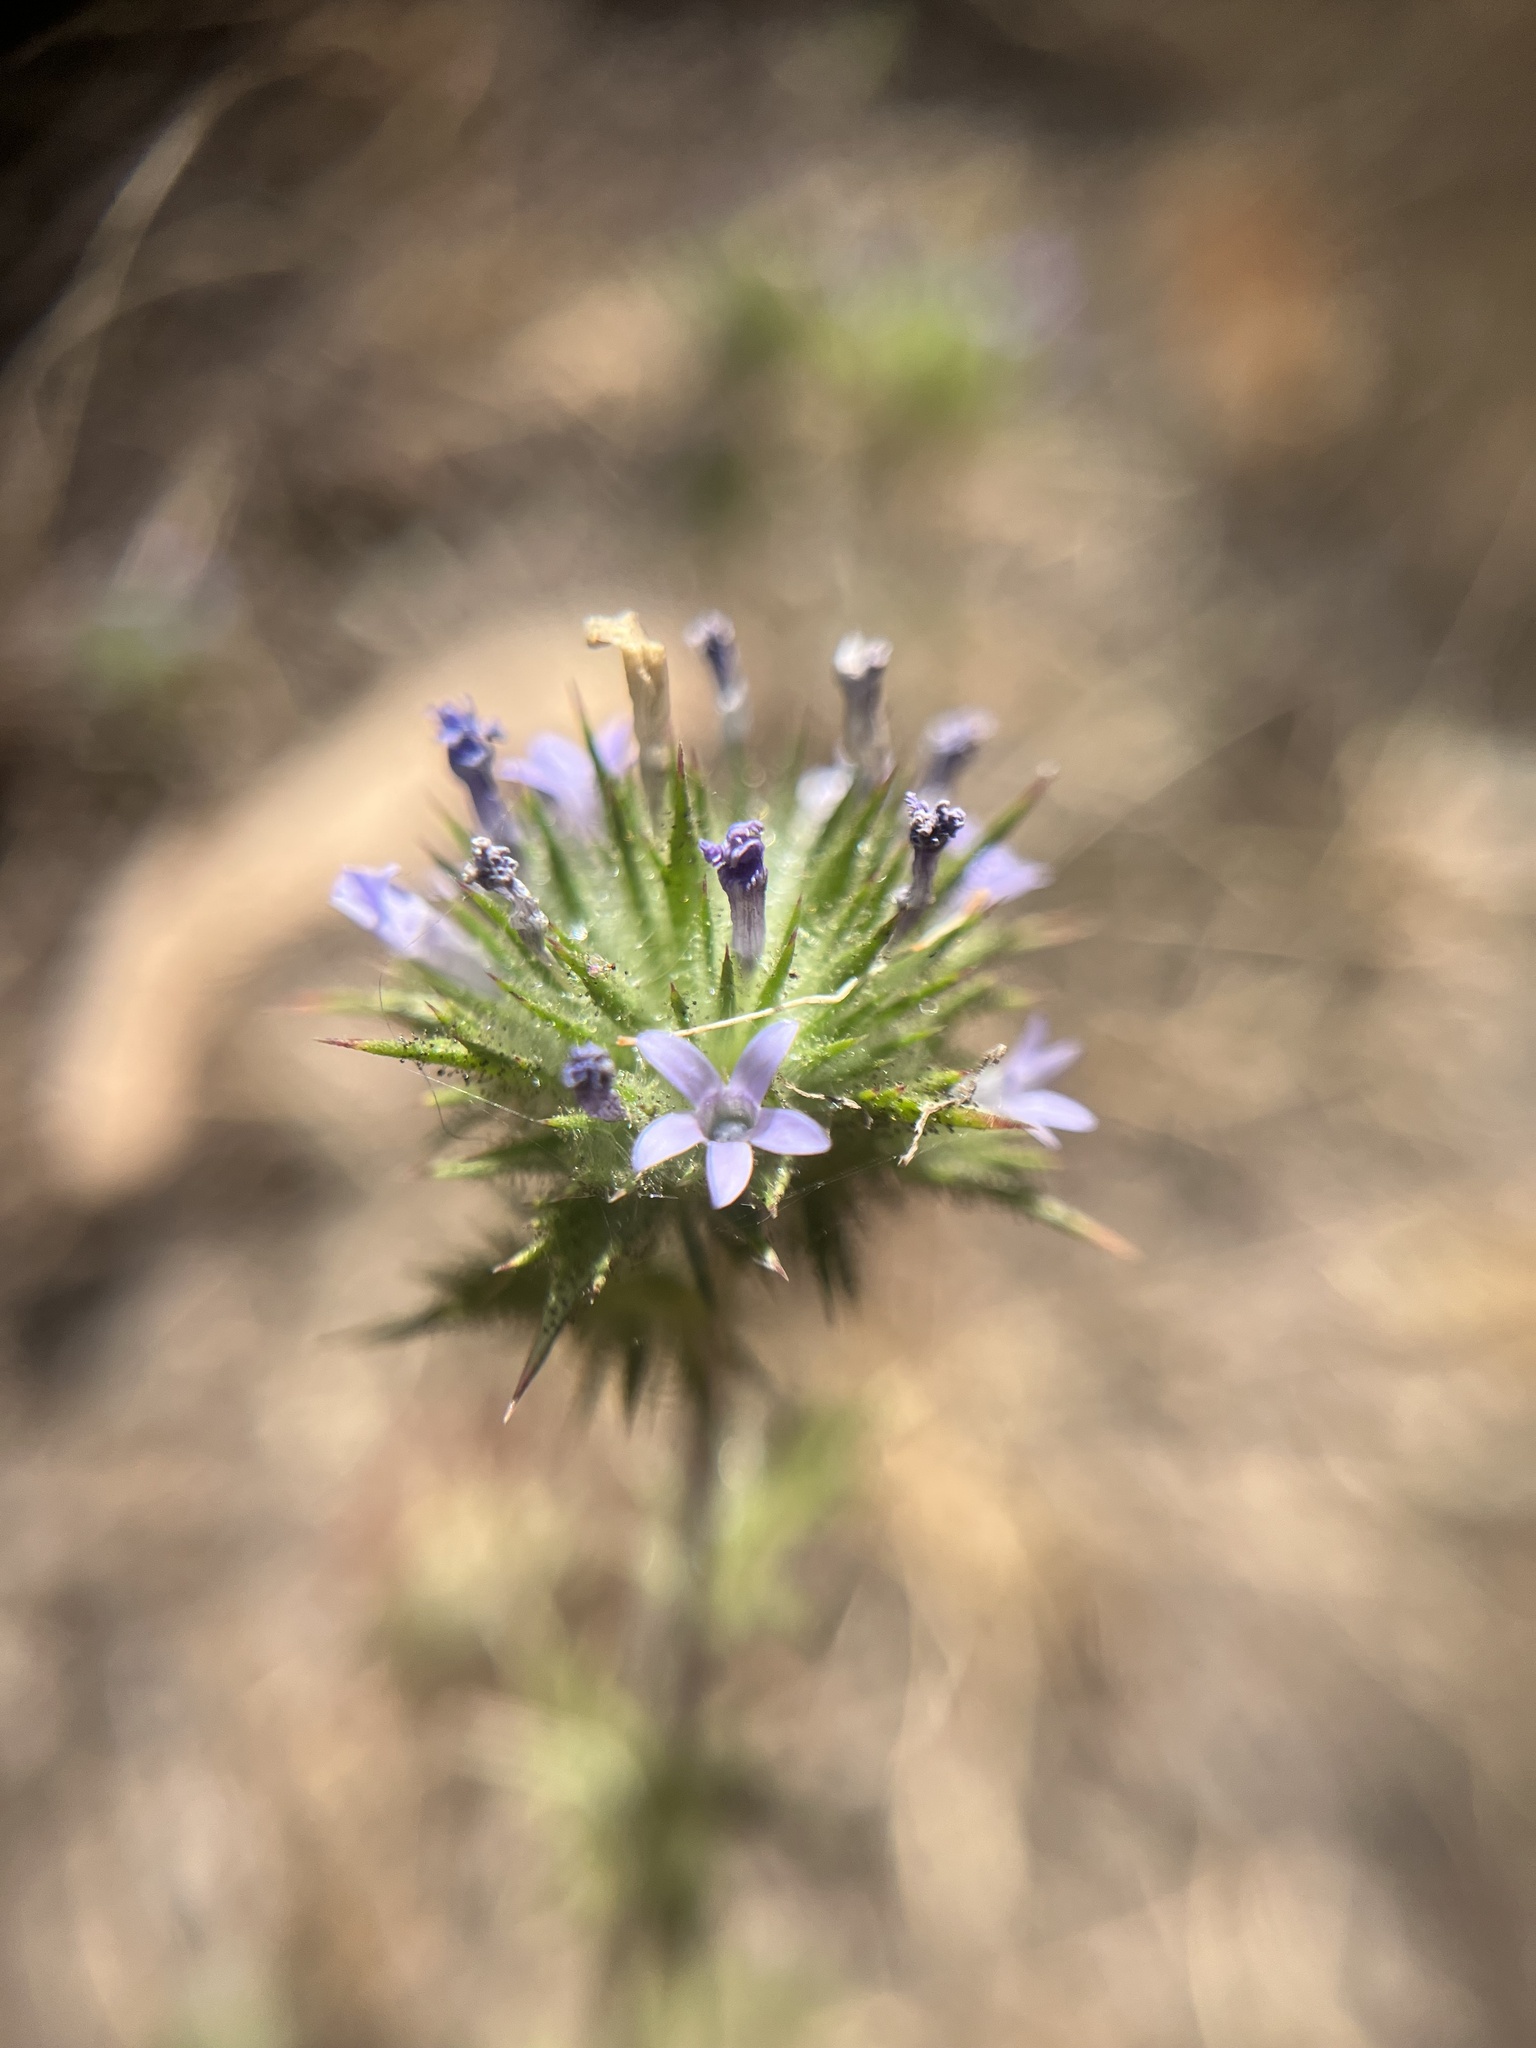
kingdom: Plantae
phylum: Tracheophyta
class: Magnoliopsida
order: Ericales
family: Polemoniaceae
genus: Navarretia
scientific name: Navarretia squarrosa
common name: Skunkweed
